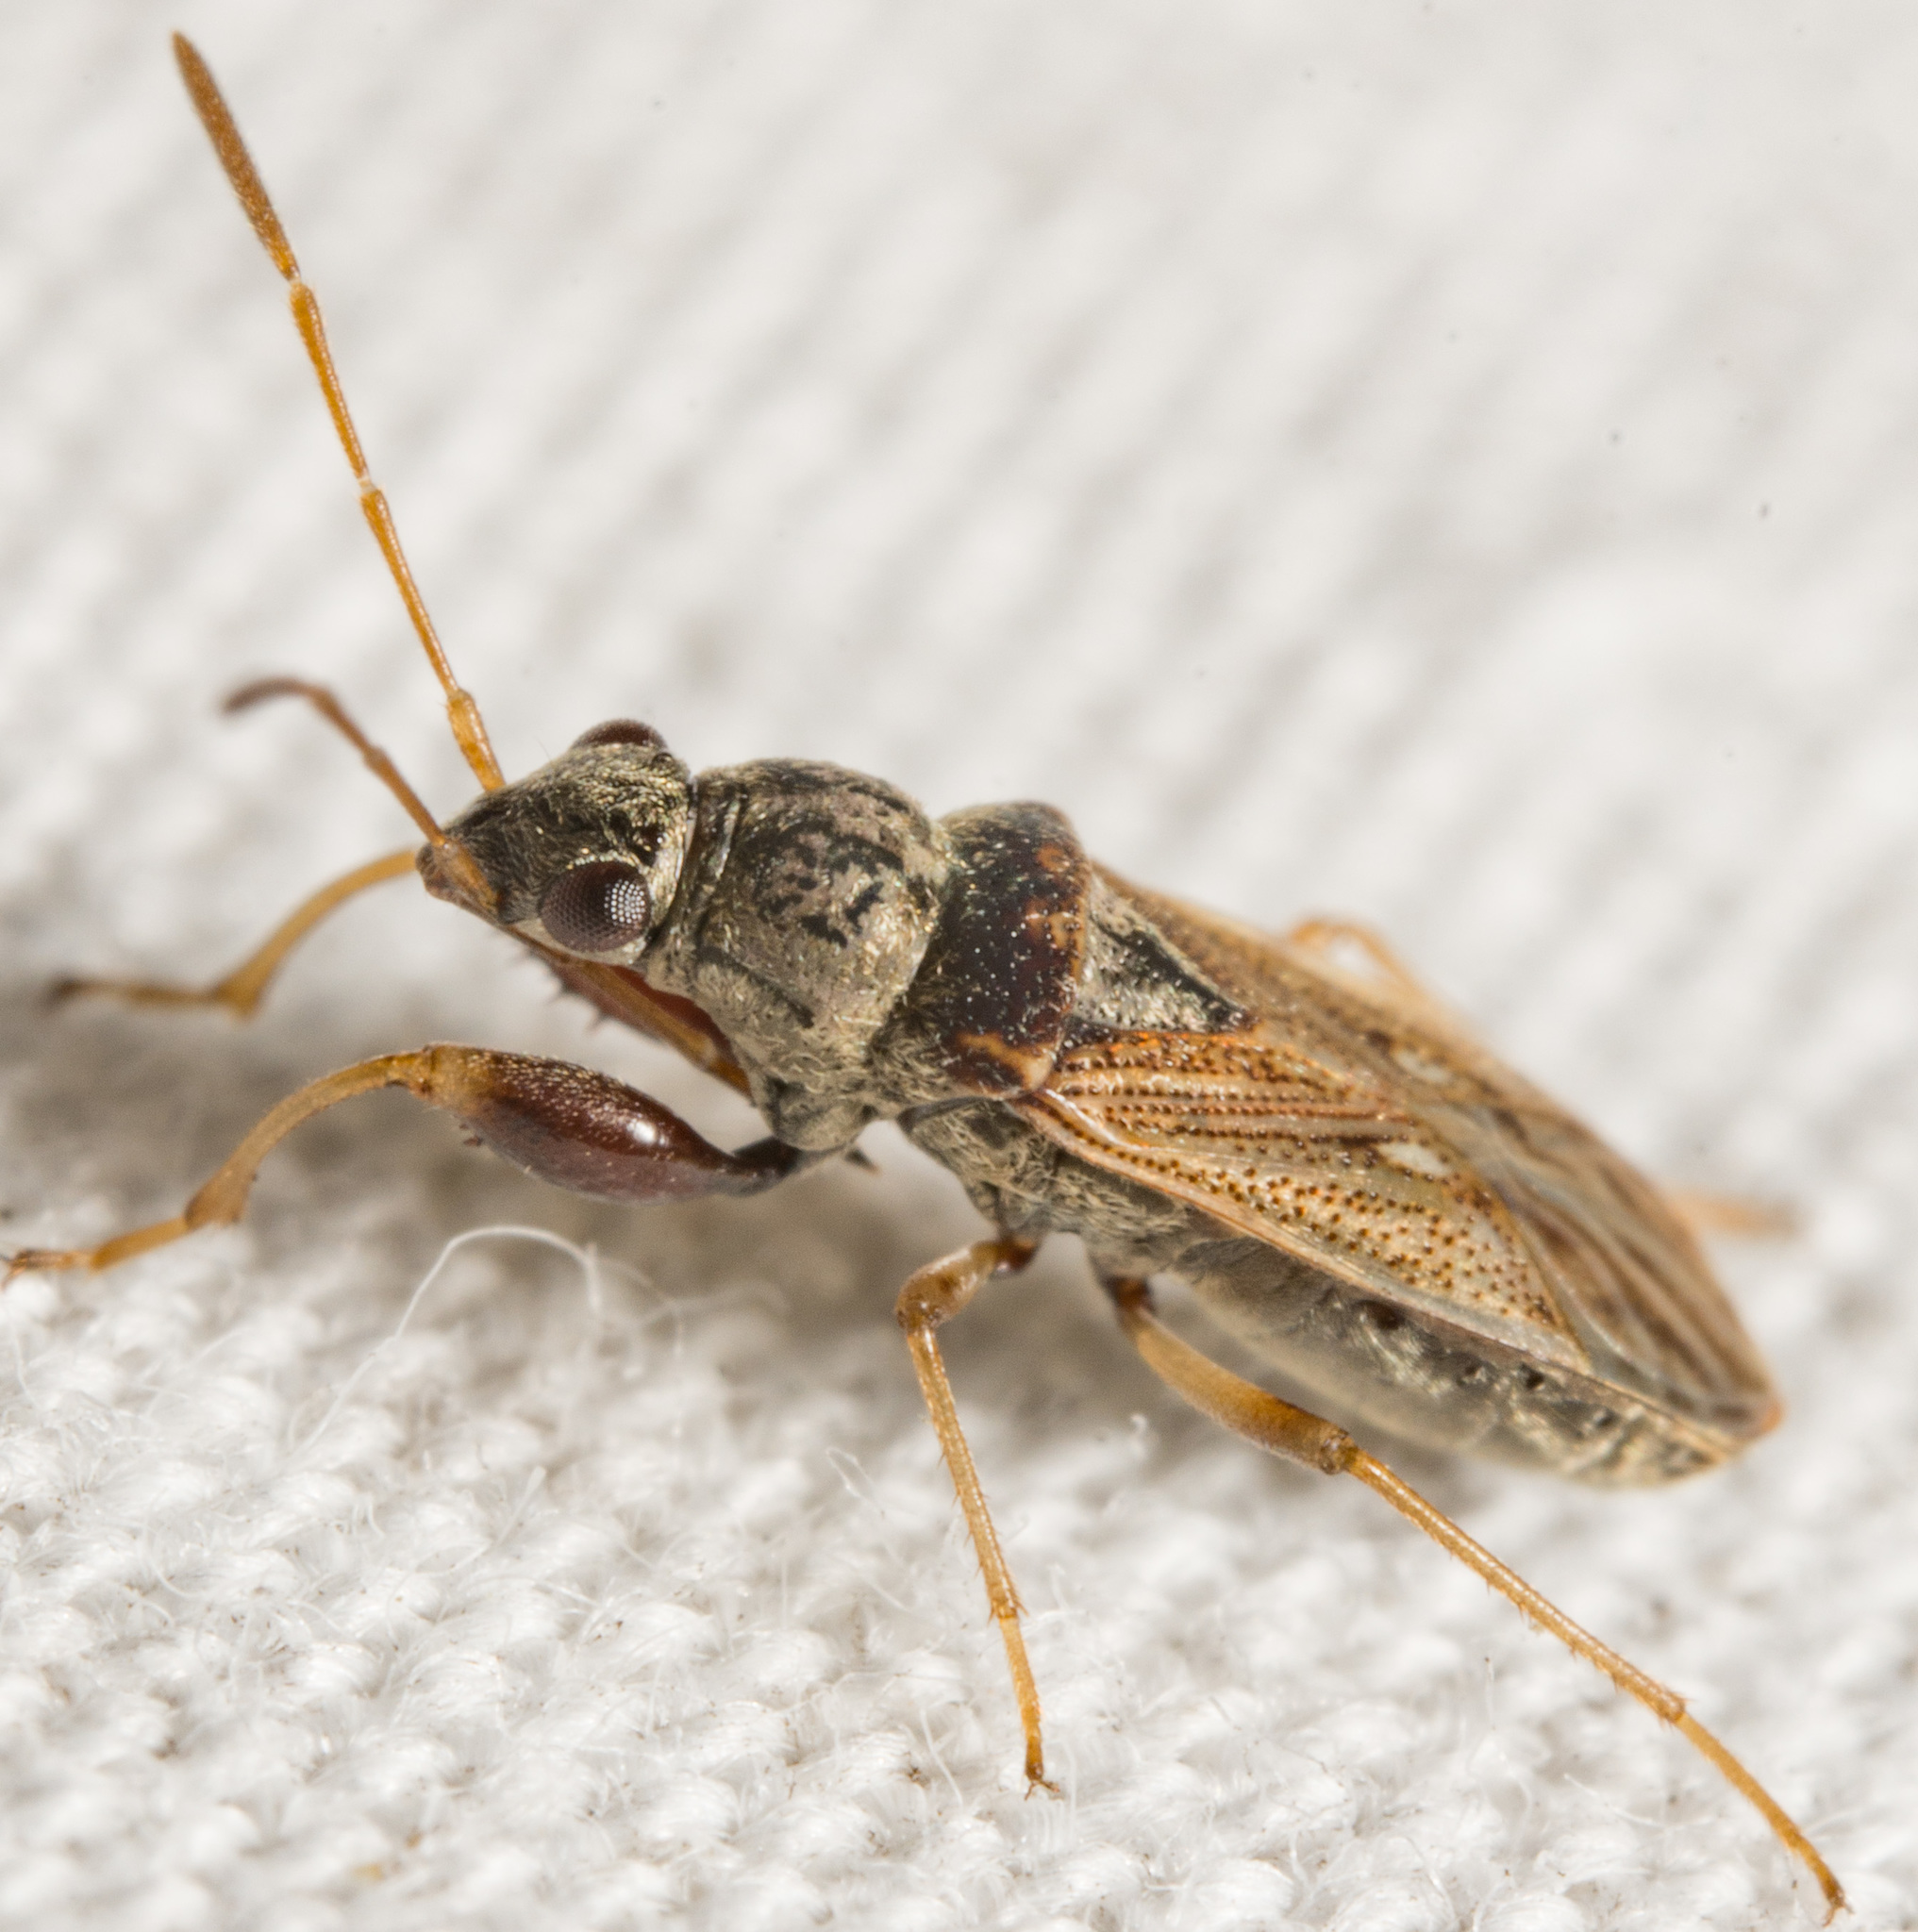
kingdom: Animalia
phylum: Arthropoda
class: Insecta
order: Hemiptera
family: Rhyparochromidae
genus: Pseudopachybrachius
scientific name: Pseudopachybrachius basalis
